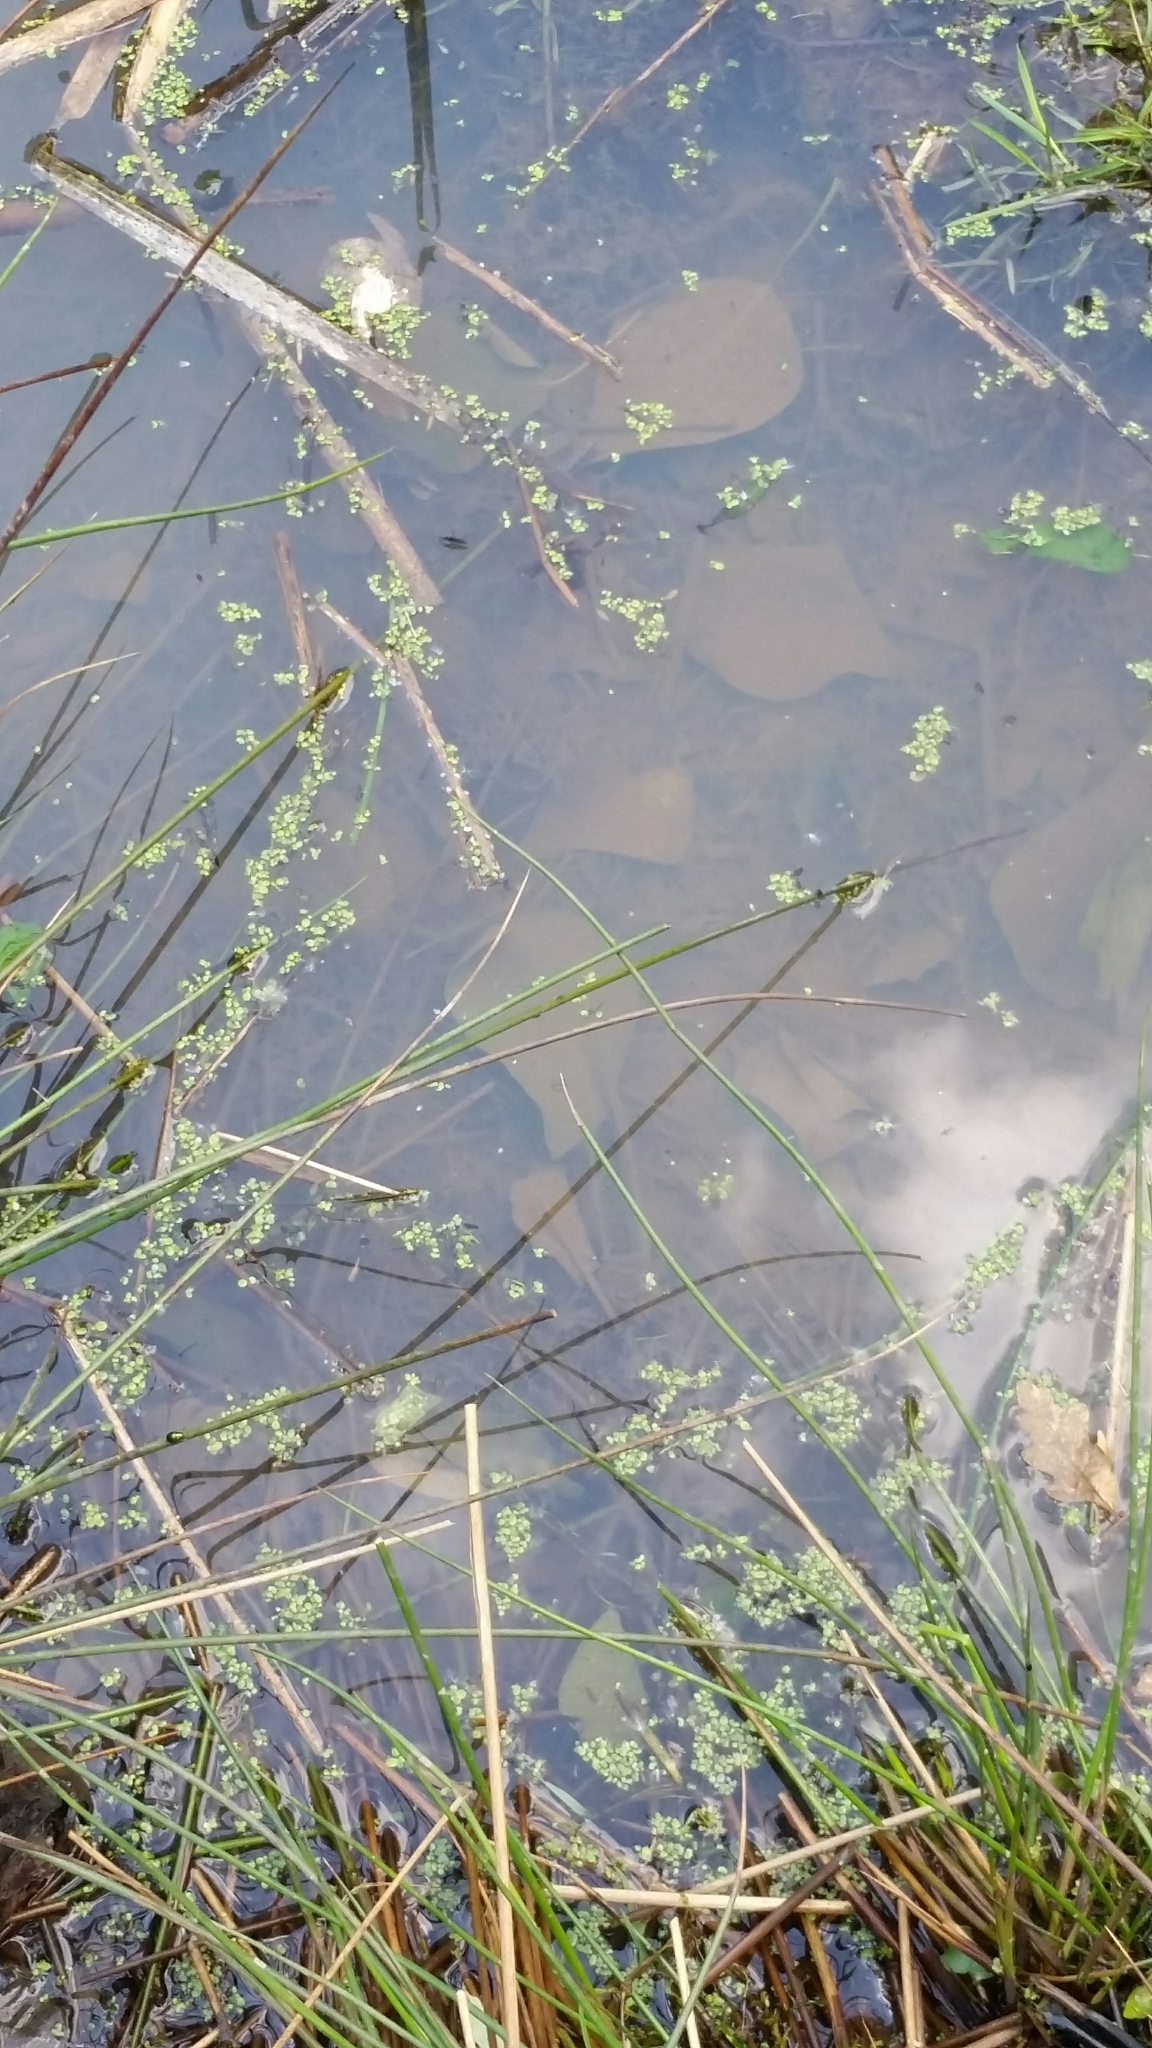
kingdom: Plantae
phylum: Tracheophyta
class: Liliopsida
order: Alismatales
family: Araceae
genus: Lemna
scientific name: Lemna minor
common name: Common duckweed
